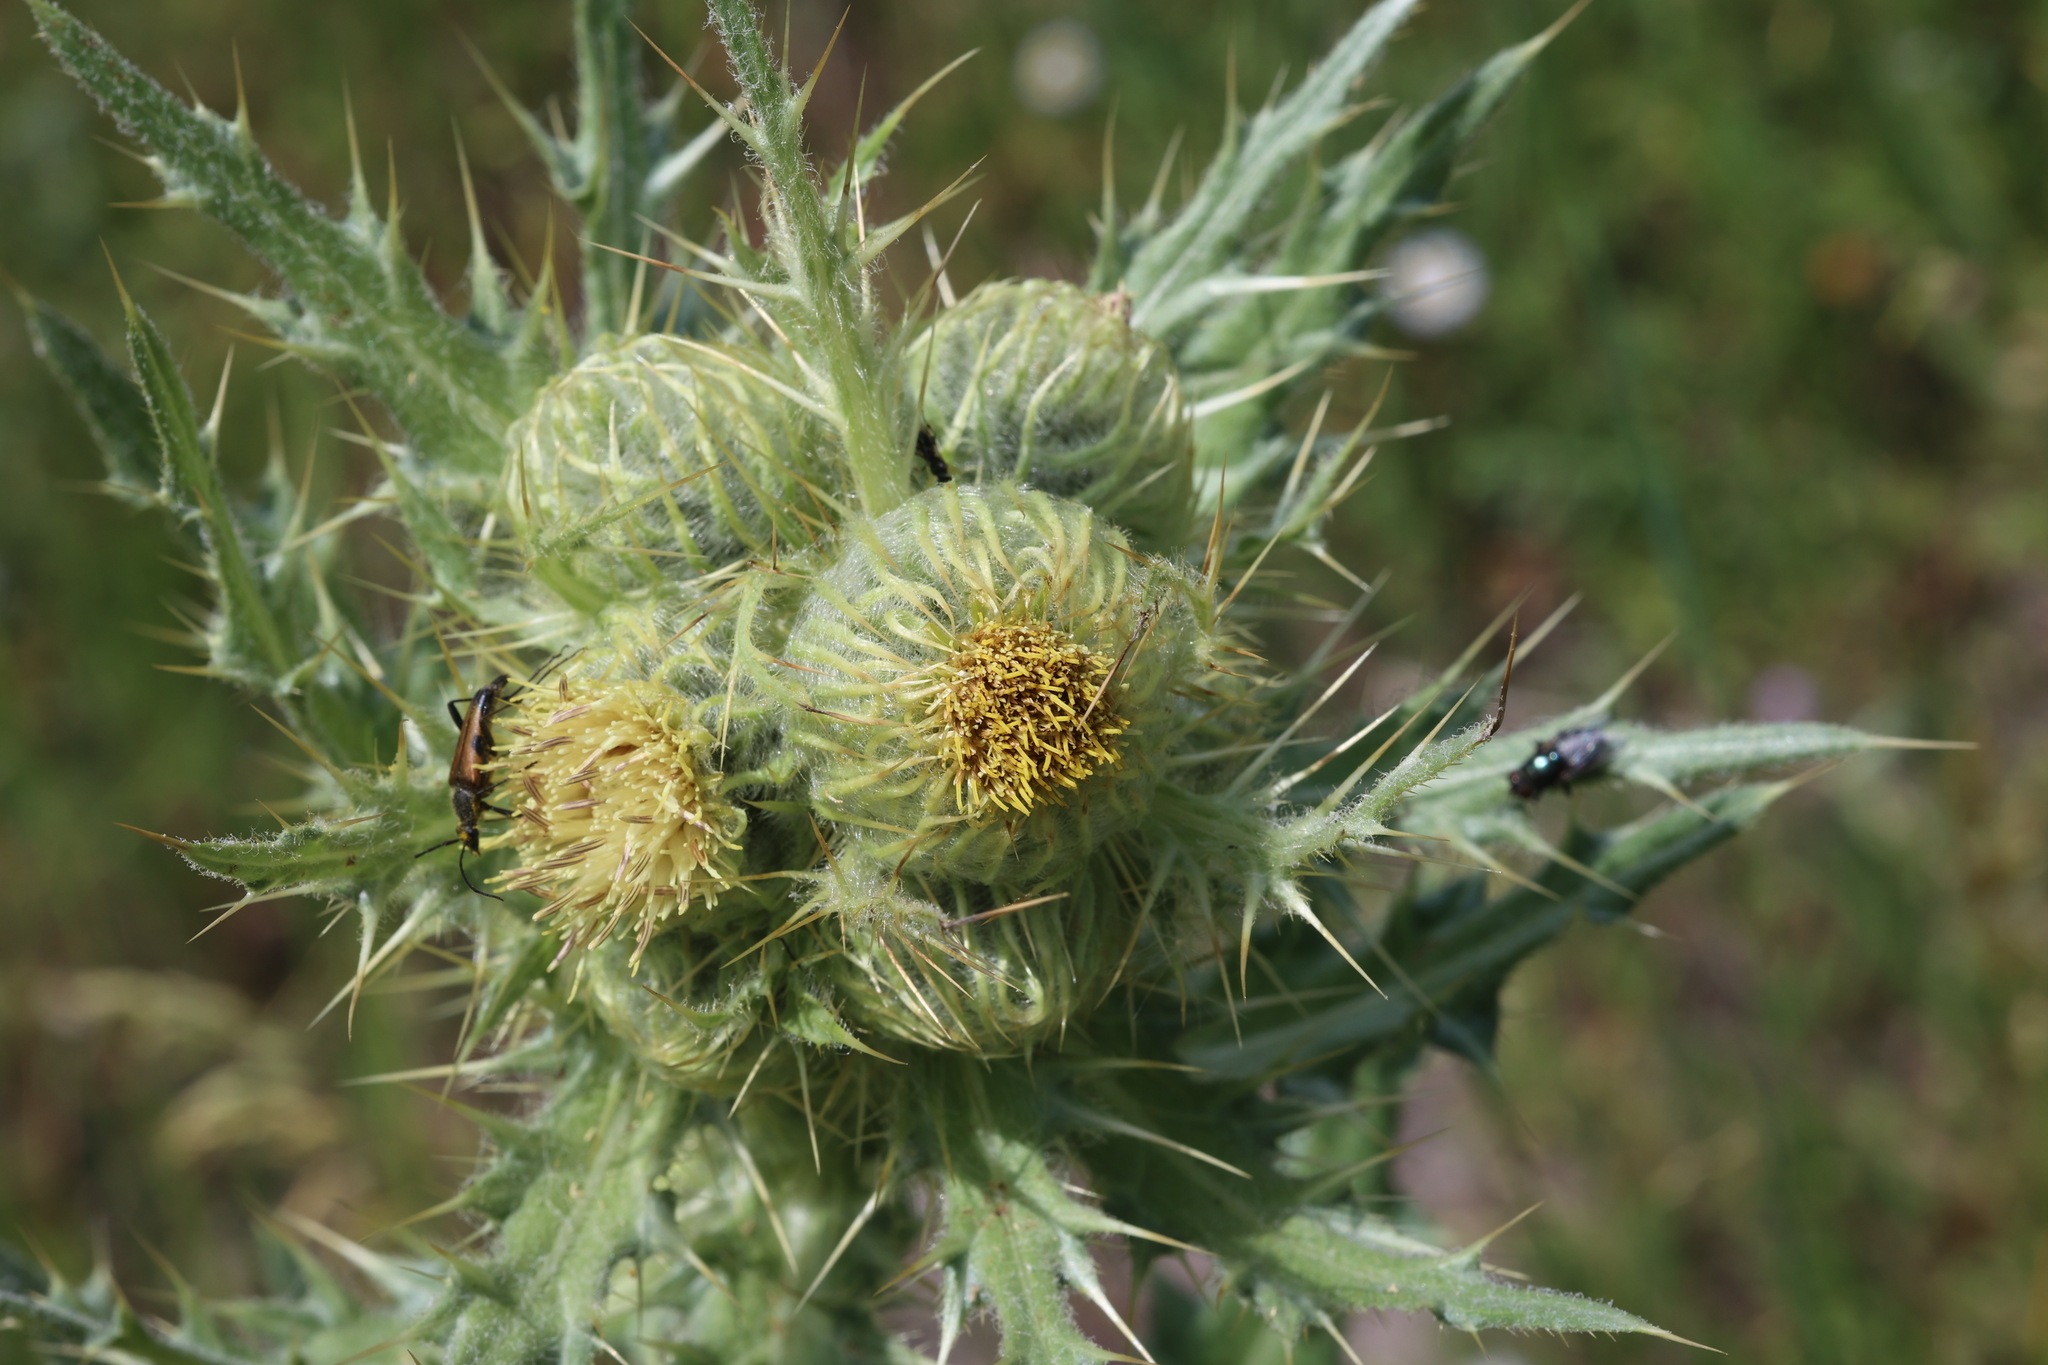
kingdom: Plantae
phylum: Tracheophyta
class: Magnoliopsida
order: Asterales
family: Asteraceae
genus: Cirsium
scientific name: Cirsium parryi
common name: Parry's thistle
